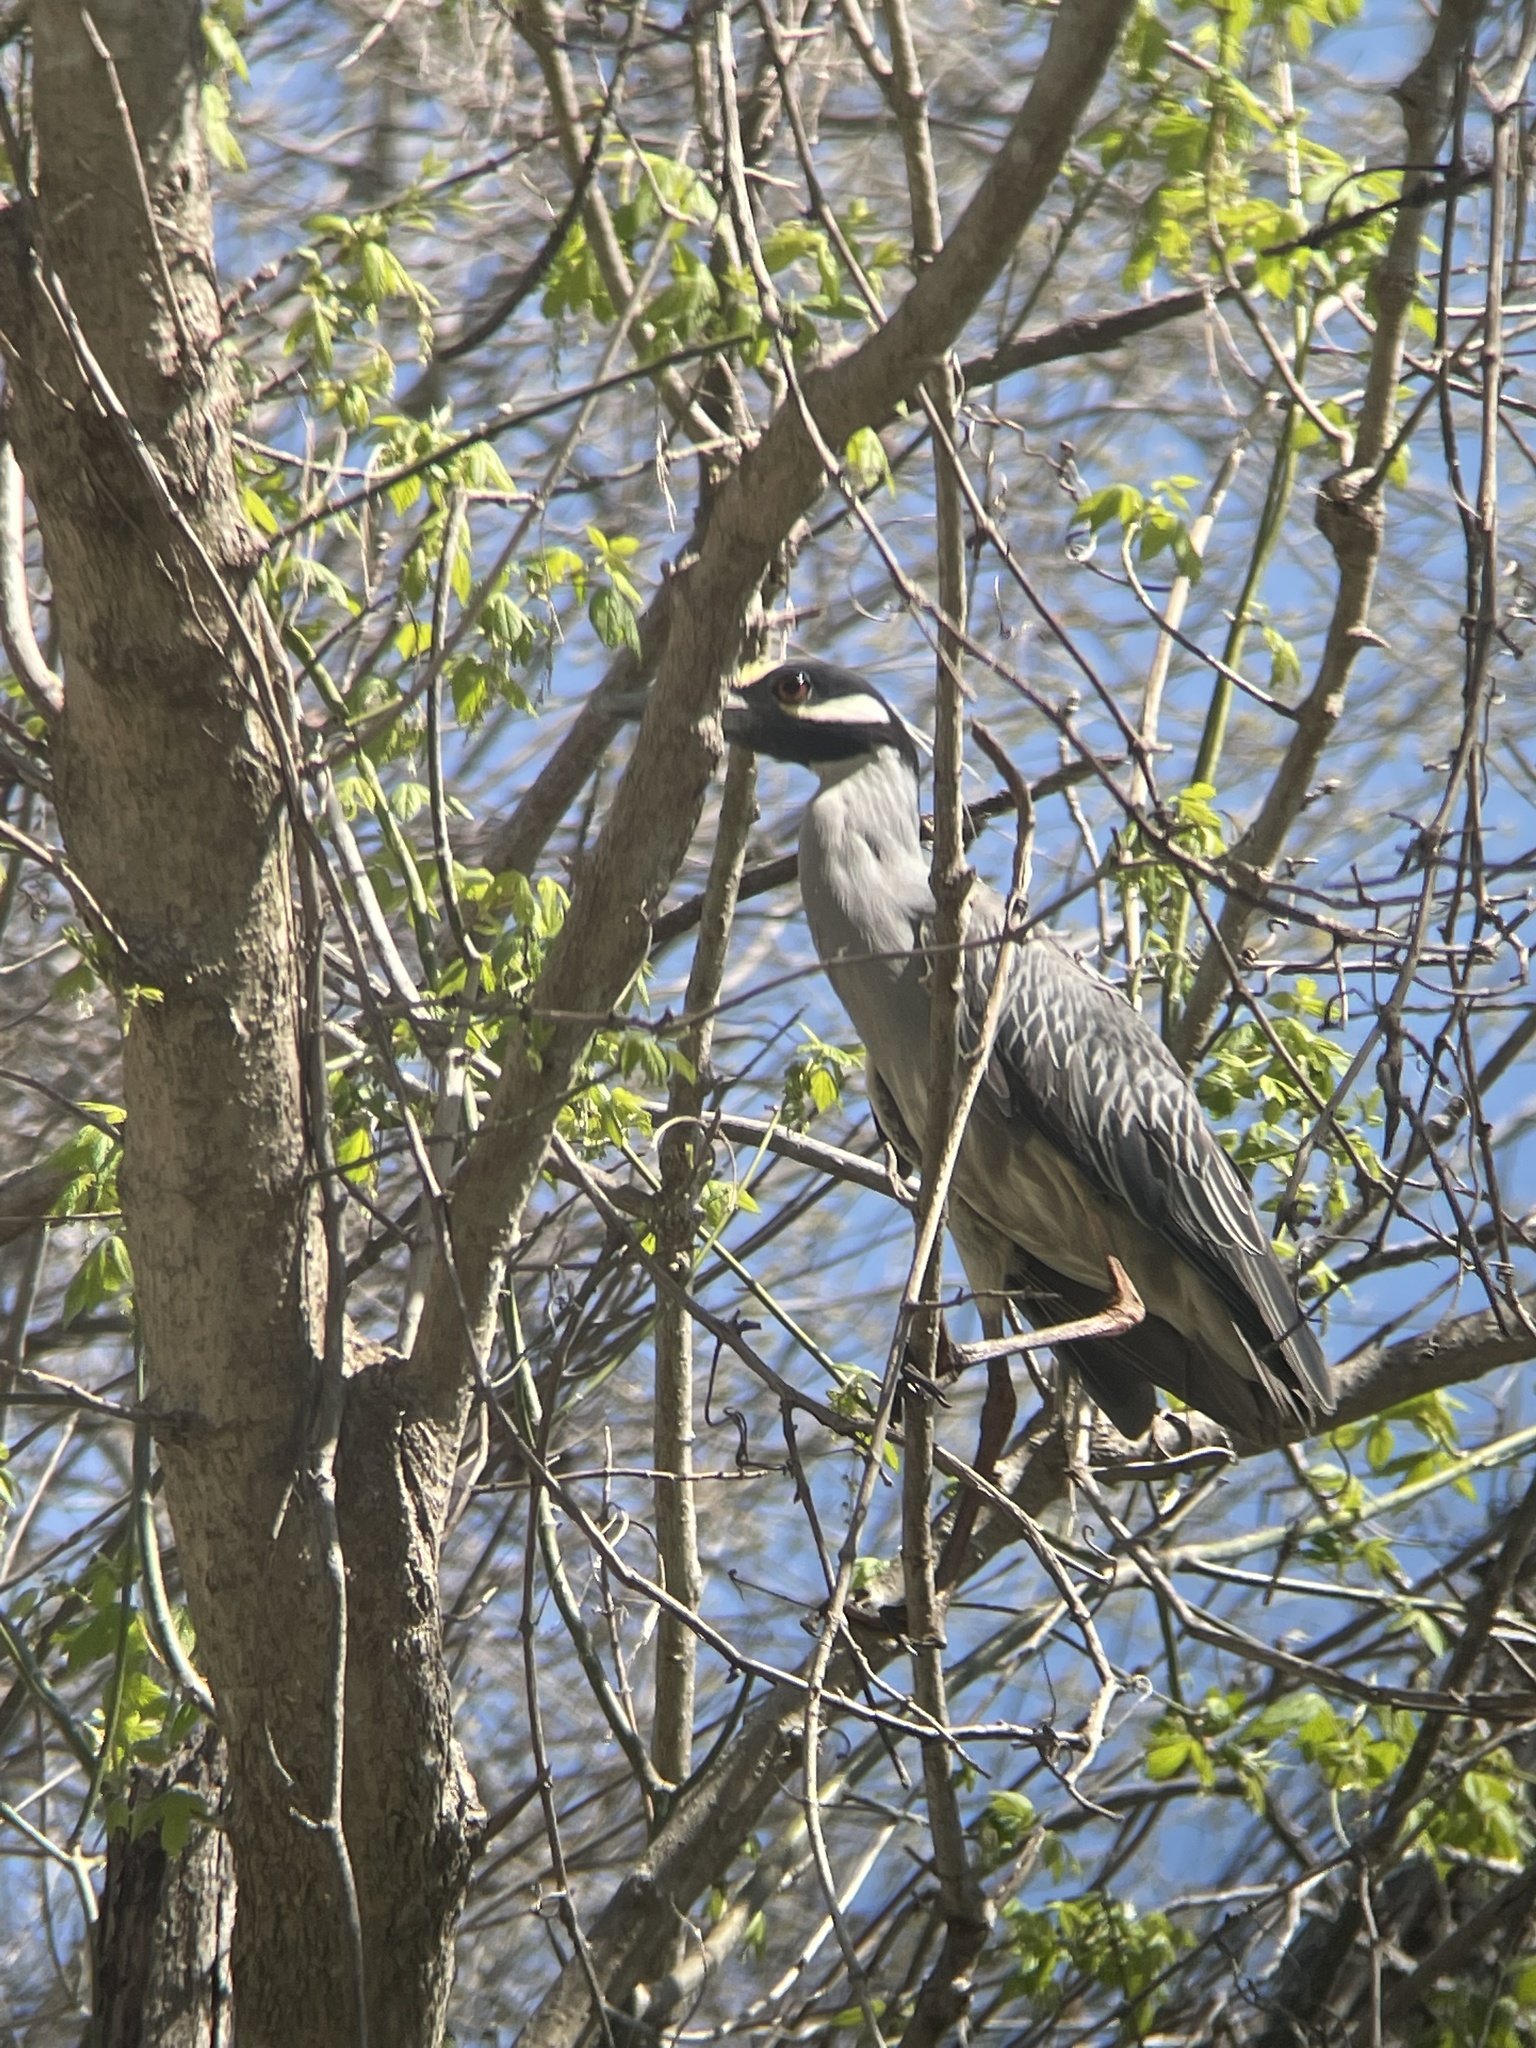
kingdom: Animalia
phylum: Chordata
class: Aves
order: Pelecaniformes
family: Ardeidae
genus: Nyctanassa
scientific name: Nyctanassa violacea
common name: Yellow-crowned night heron
